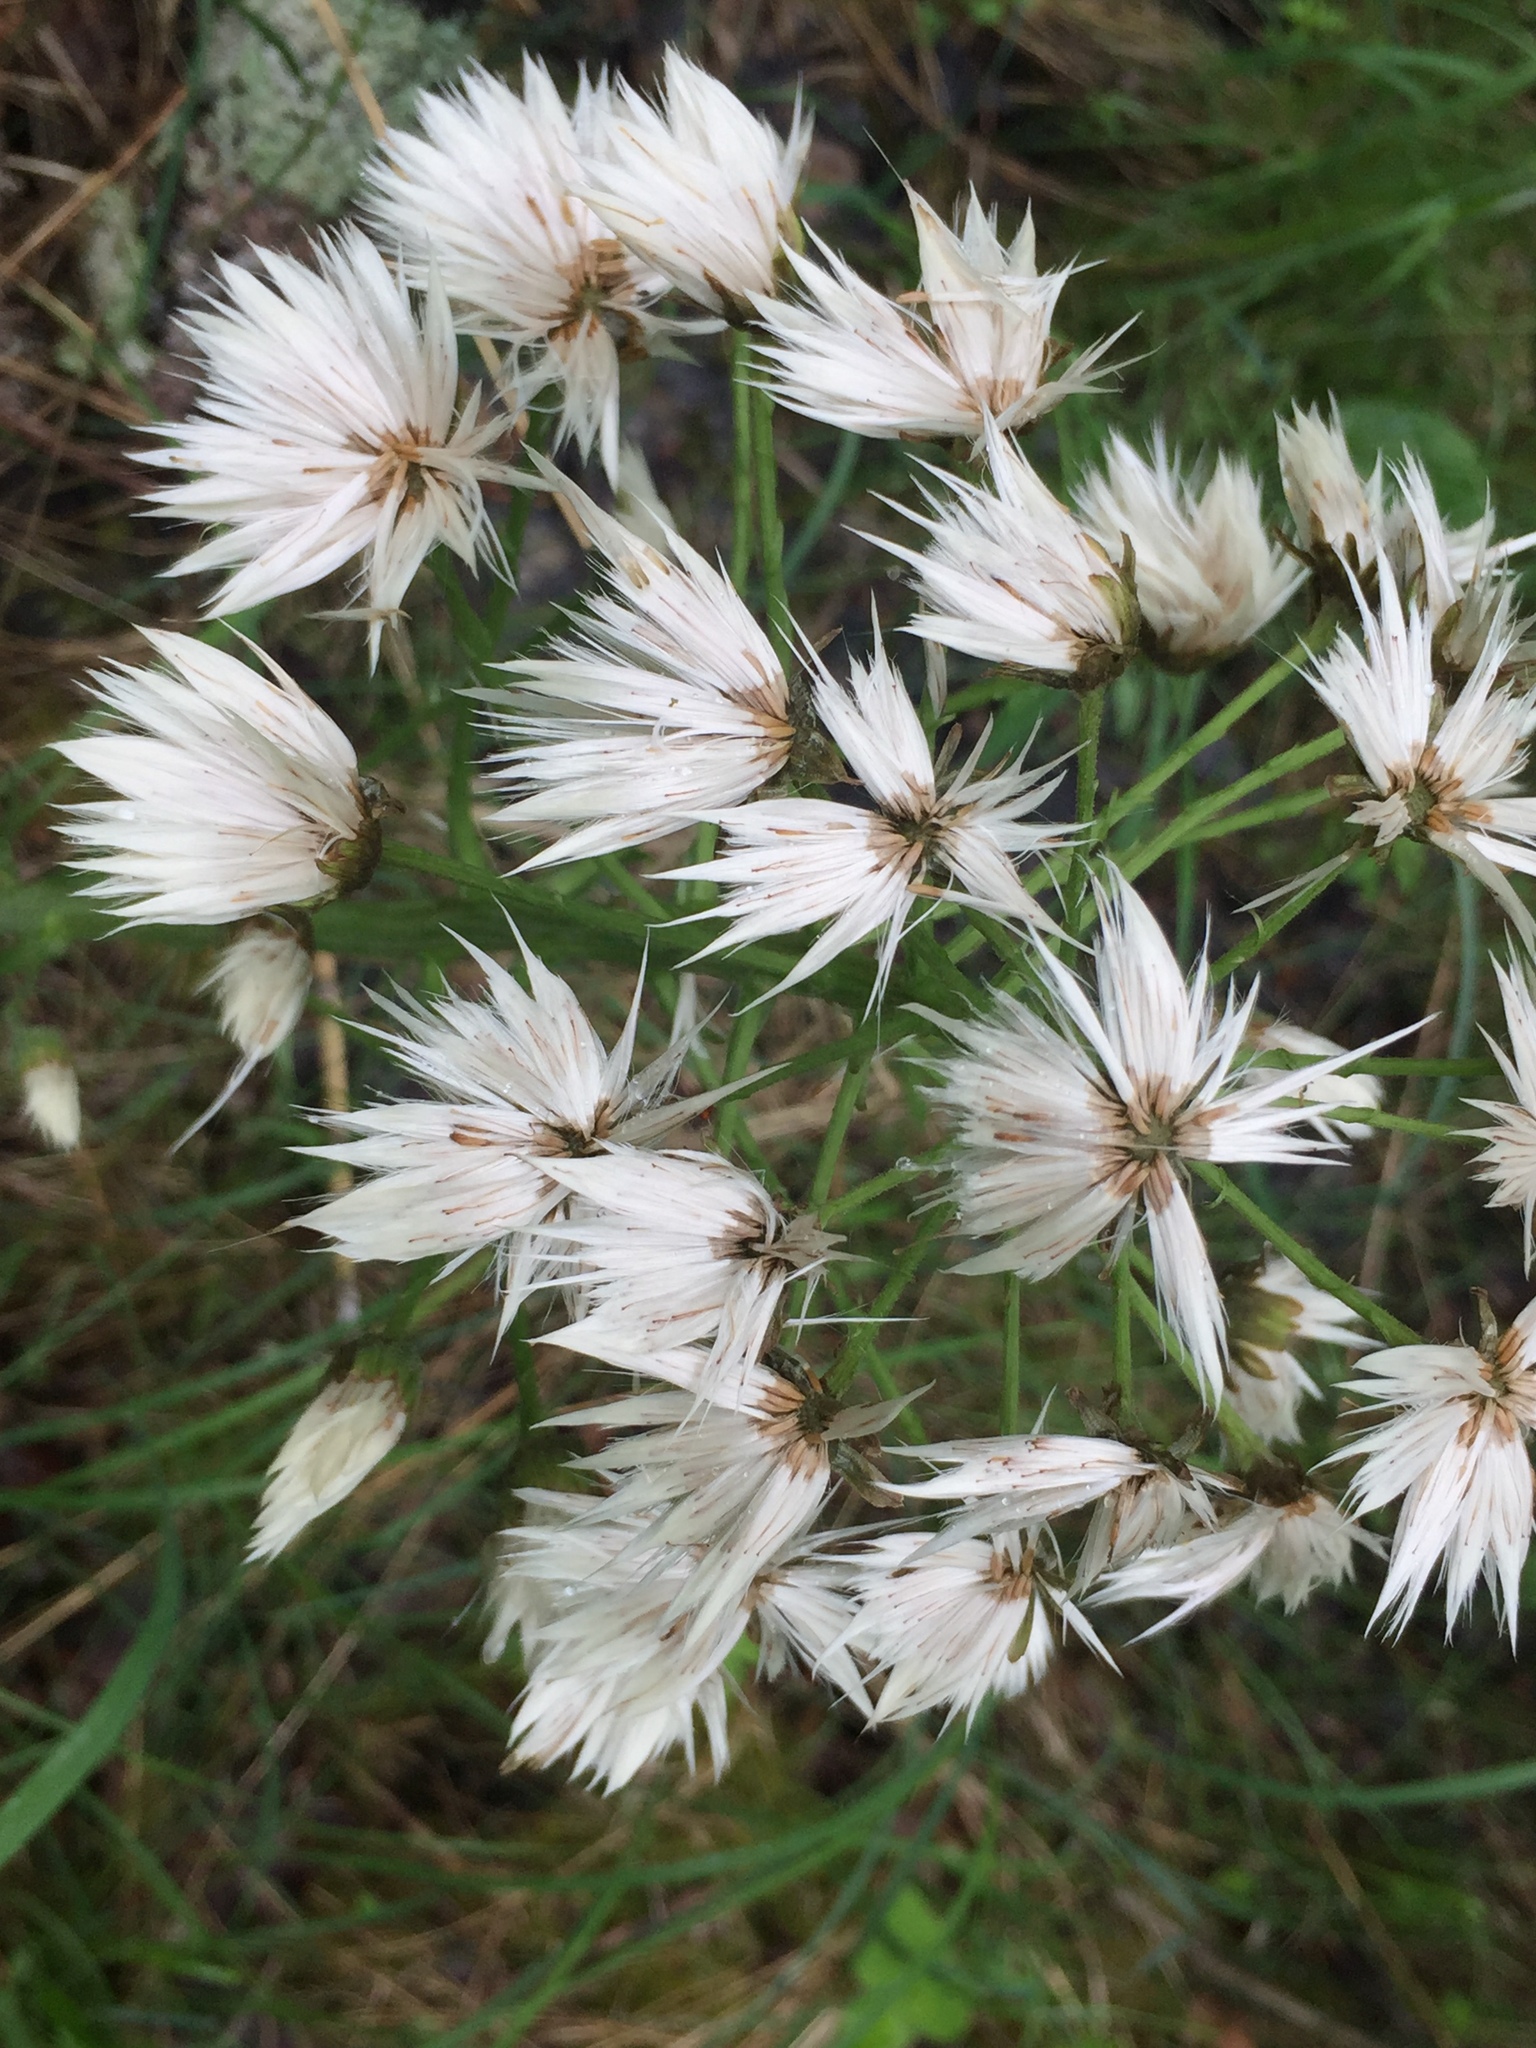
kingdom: Plantae
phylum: Tracheophyta
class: Magnoliopsida
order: Asterales
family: Asteraceae
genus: Petasites
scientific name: Petasites frigidus
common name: Arctic butterbur
